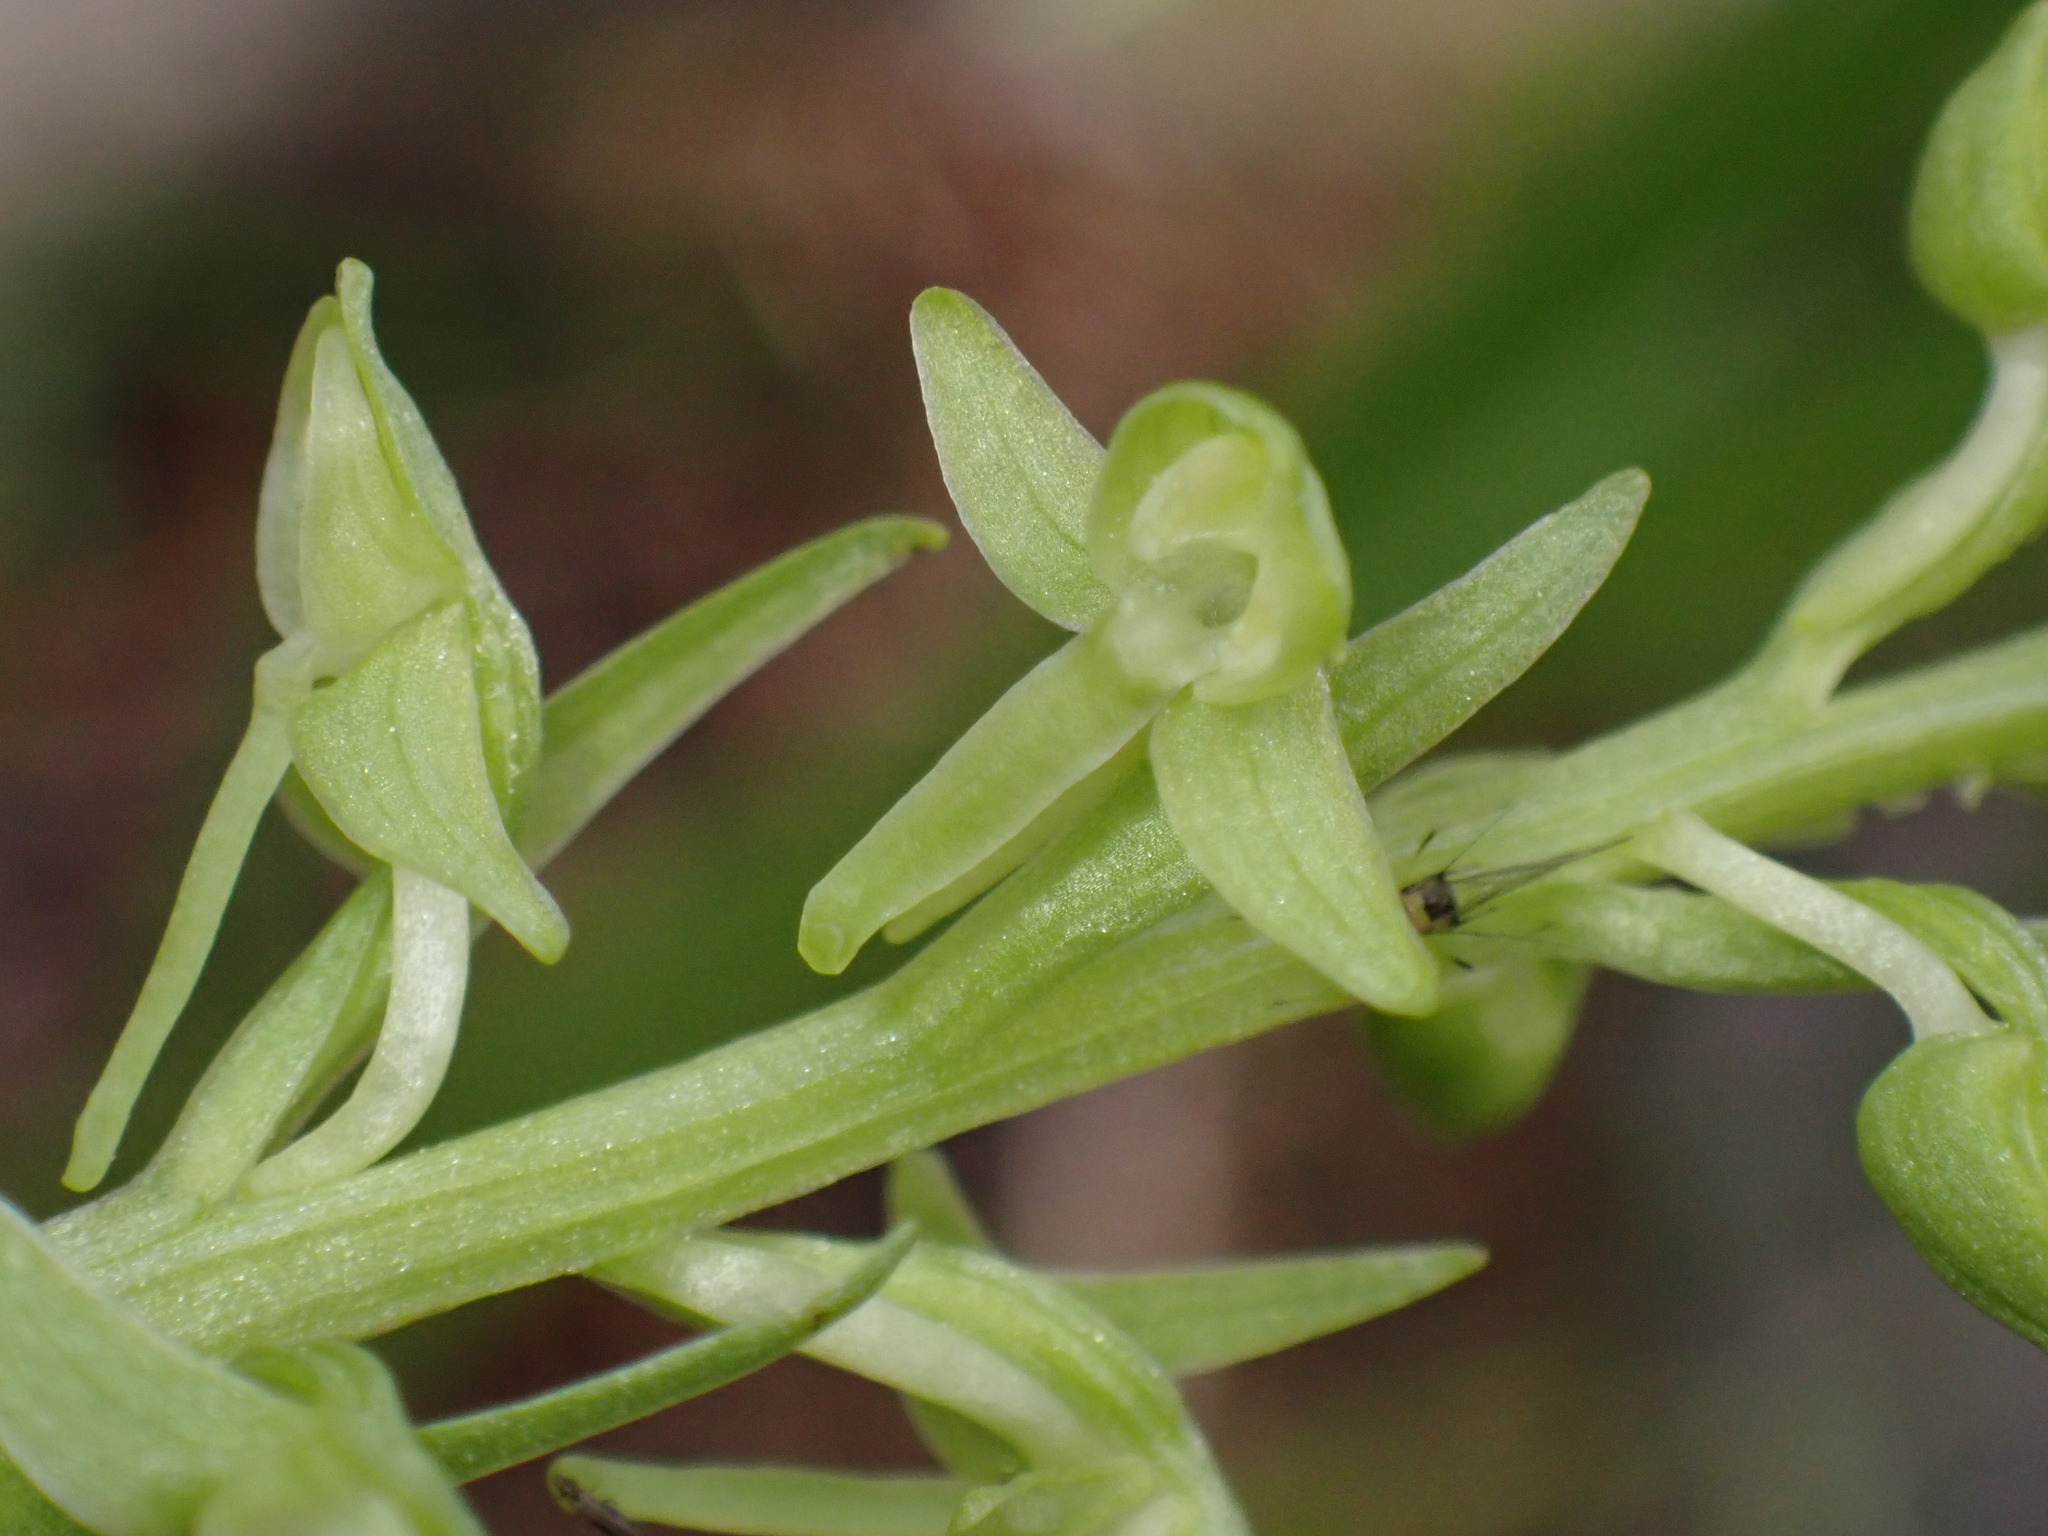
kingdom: Plantae
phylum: Tracheophyta
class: Liliopsida
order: Asparagales
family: Orchidaceae
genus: Platanthera
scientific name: Platanthera sparsiflora
